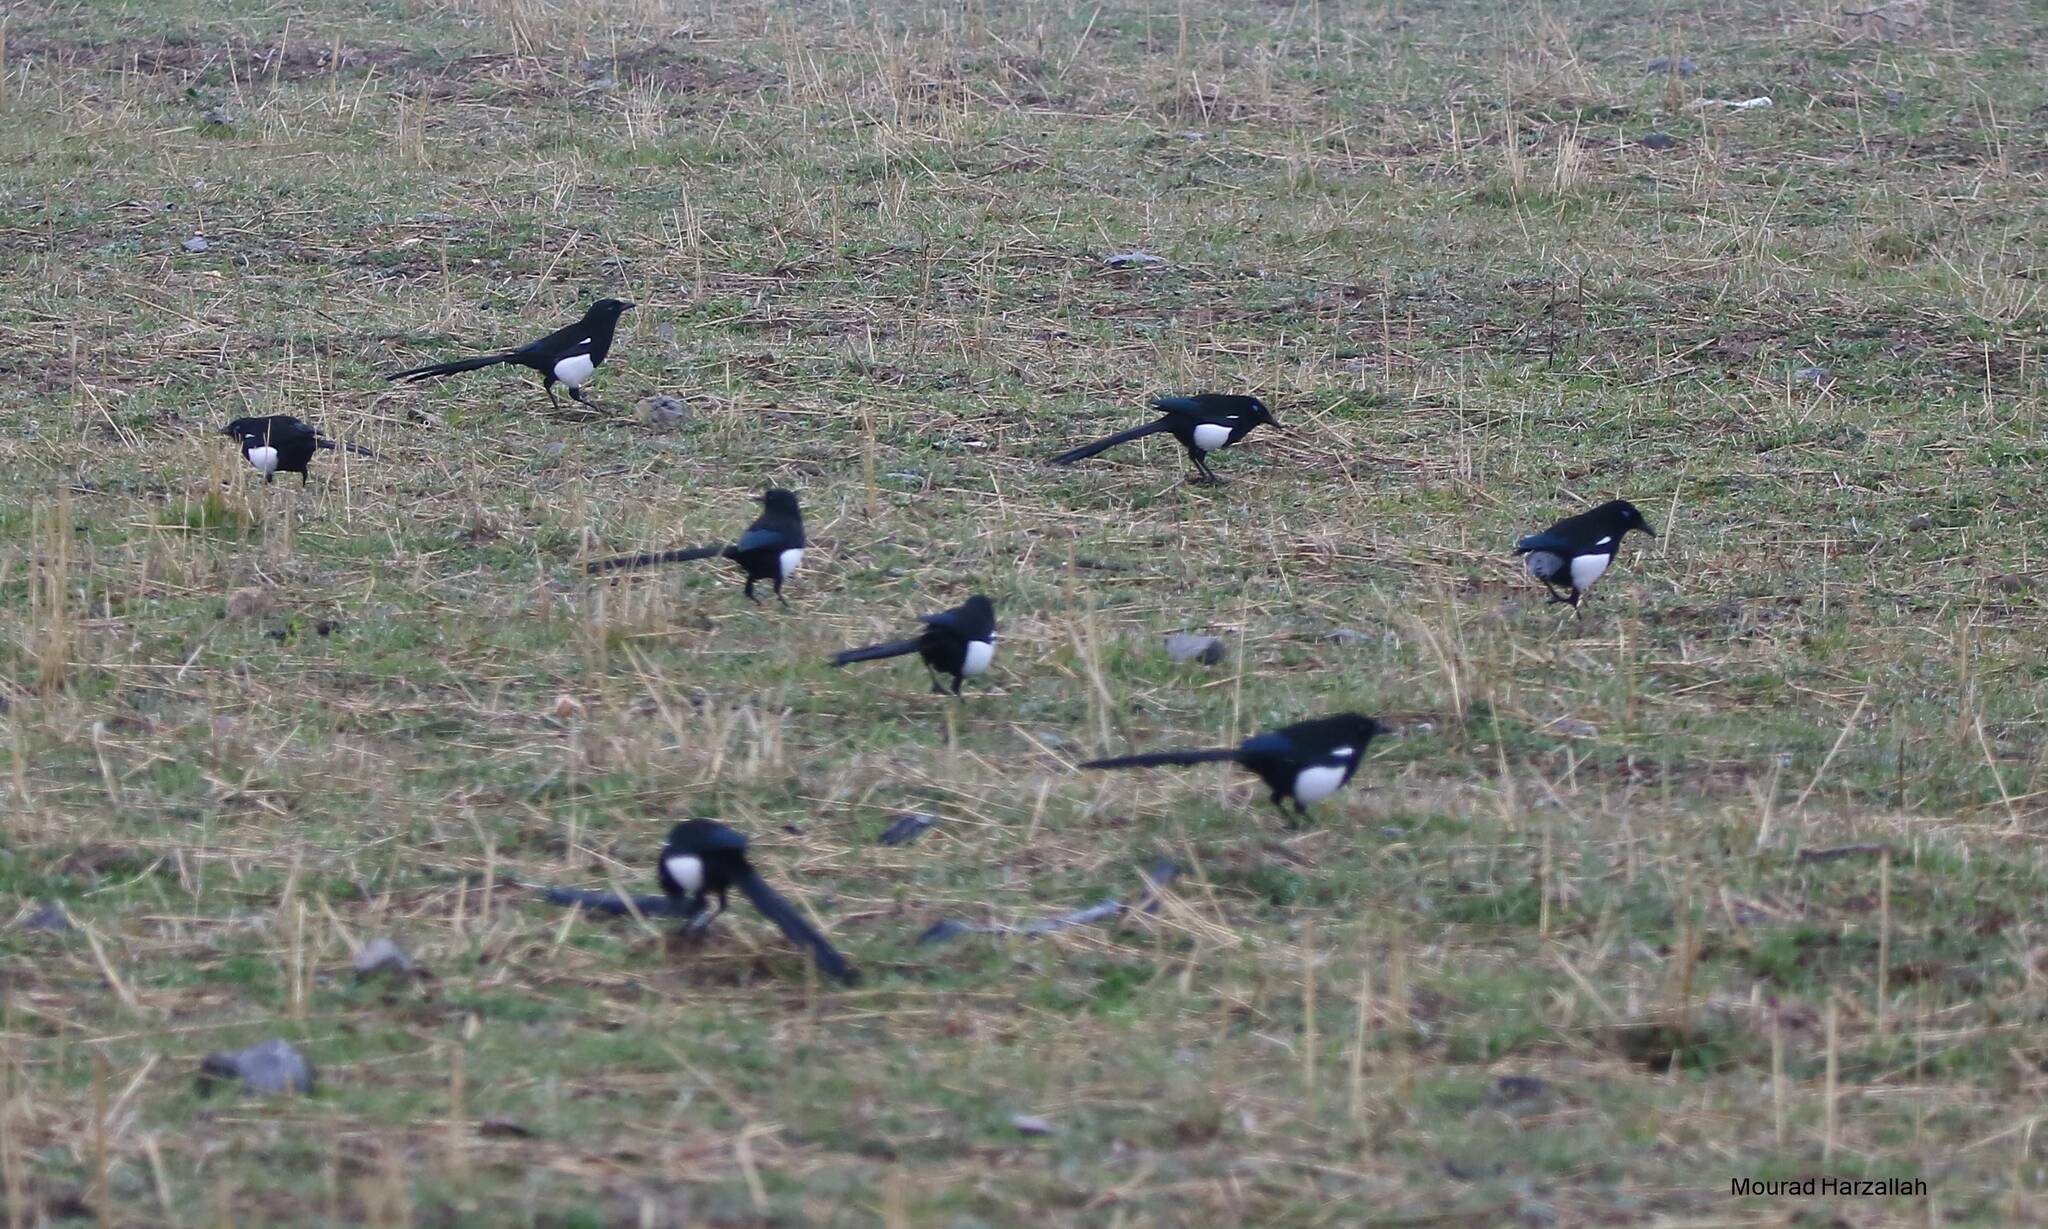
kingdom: Animalia
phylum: Chordata
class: Aves
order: Passeriformes
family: Corvidae
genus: Pica
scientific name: Pica mauritanica
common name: Maghreb magpie
